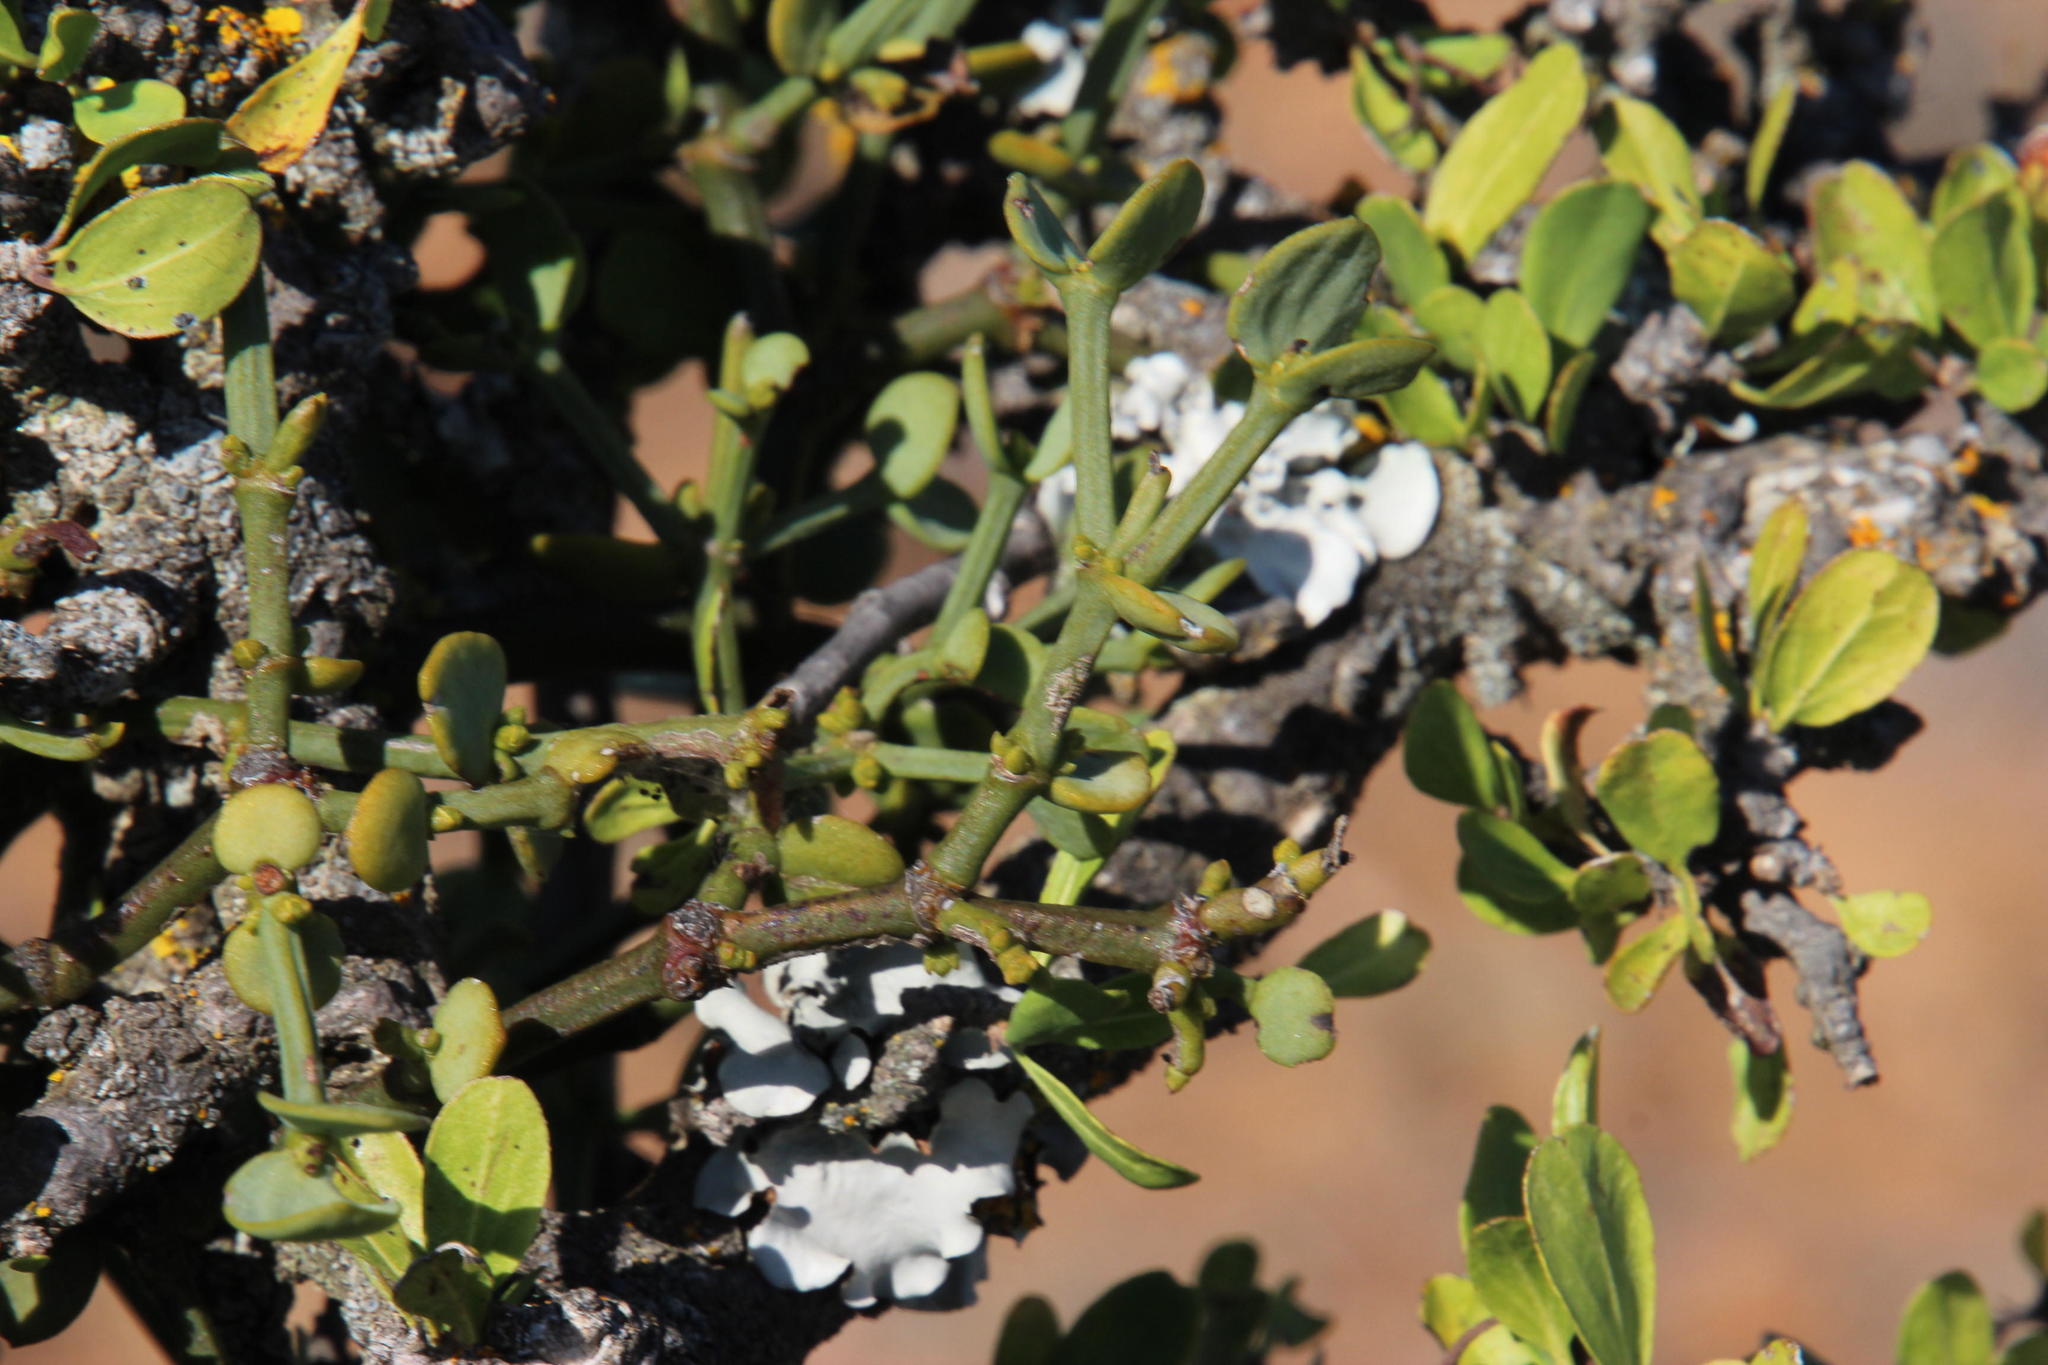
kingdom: Plantae
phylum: Tracheophyta
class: Magnoliopsida
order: Boraginales
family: Ehretiaceae
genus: Ehretia
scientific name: Ehretia rigida
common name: Cape lilac
